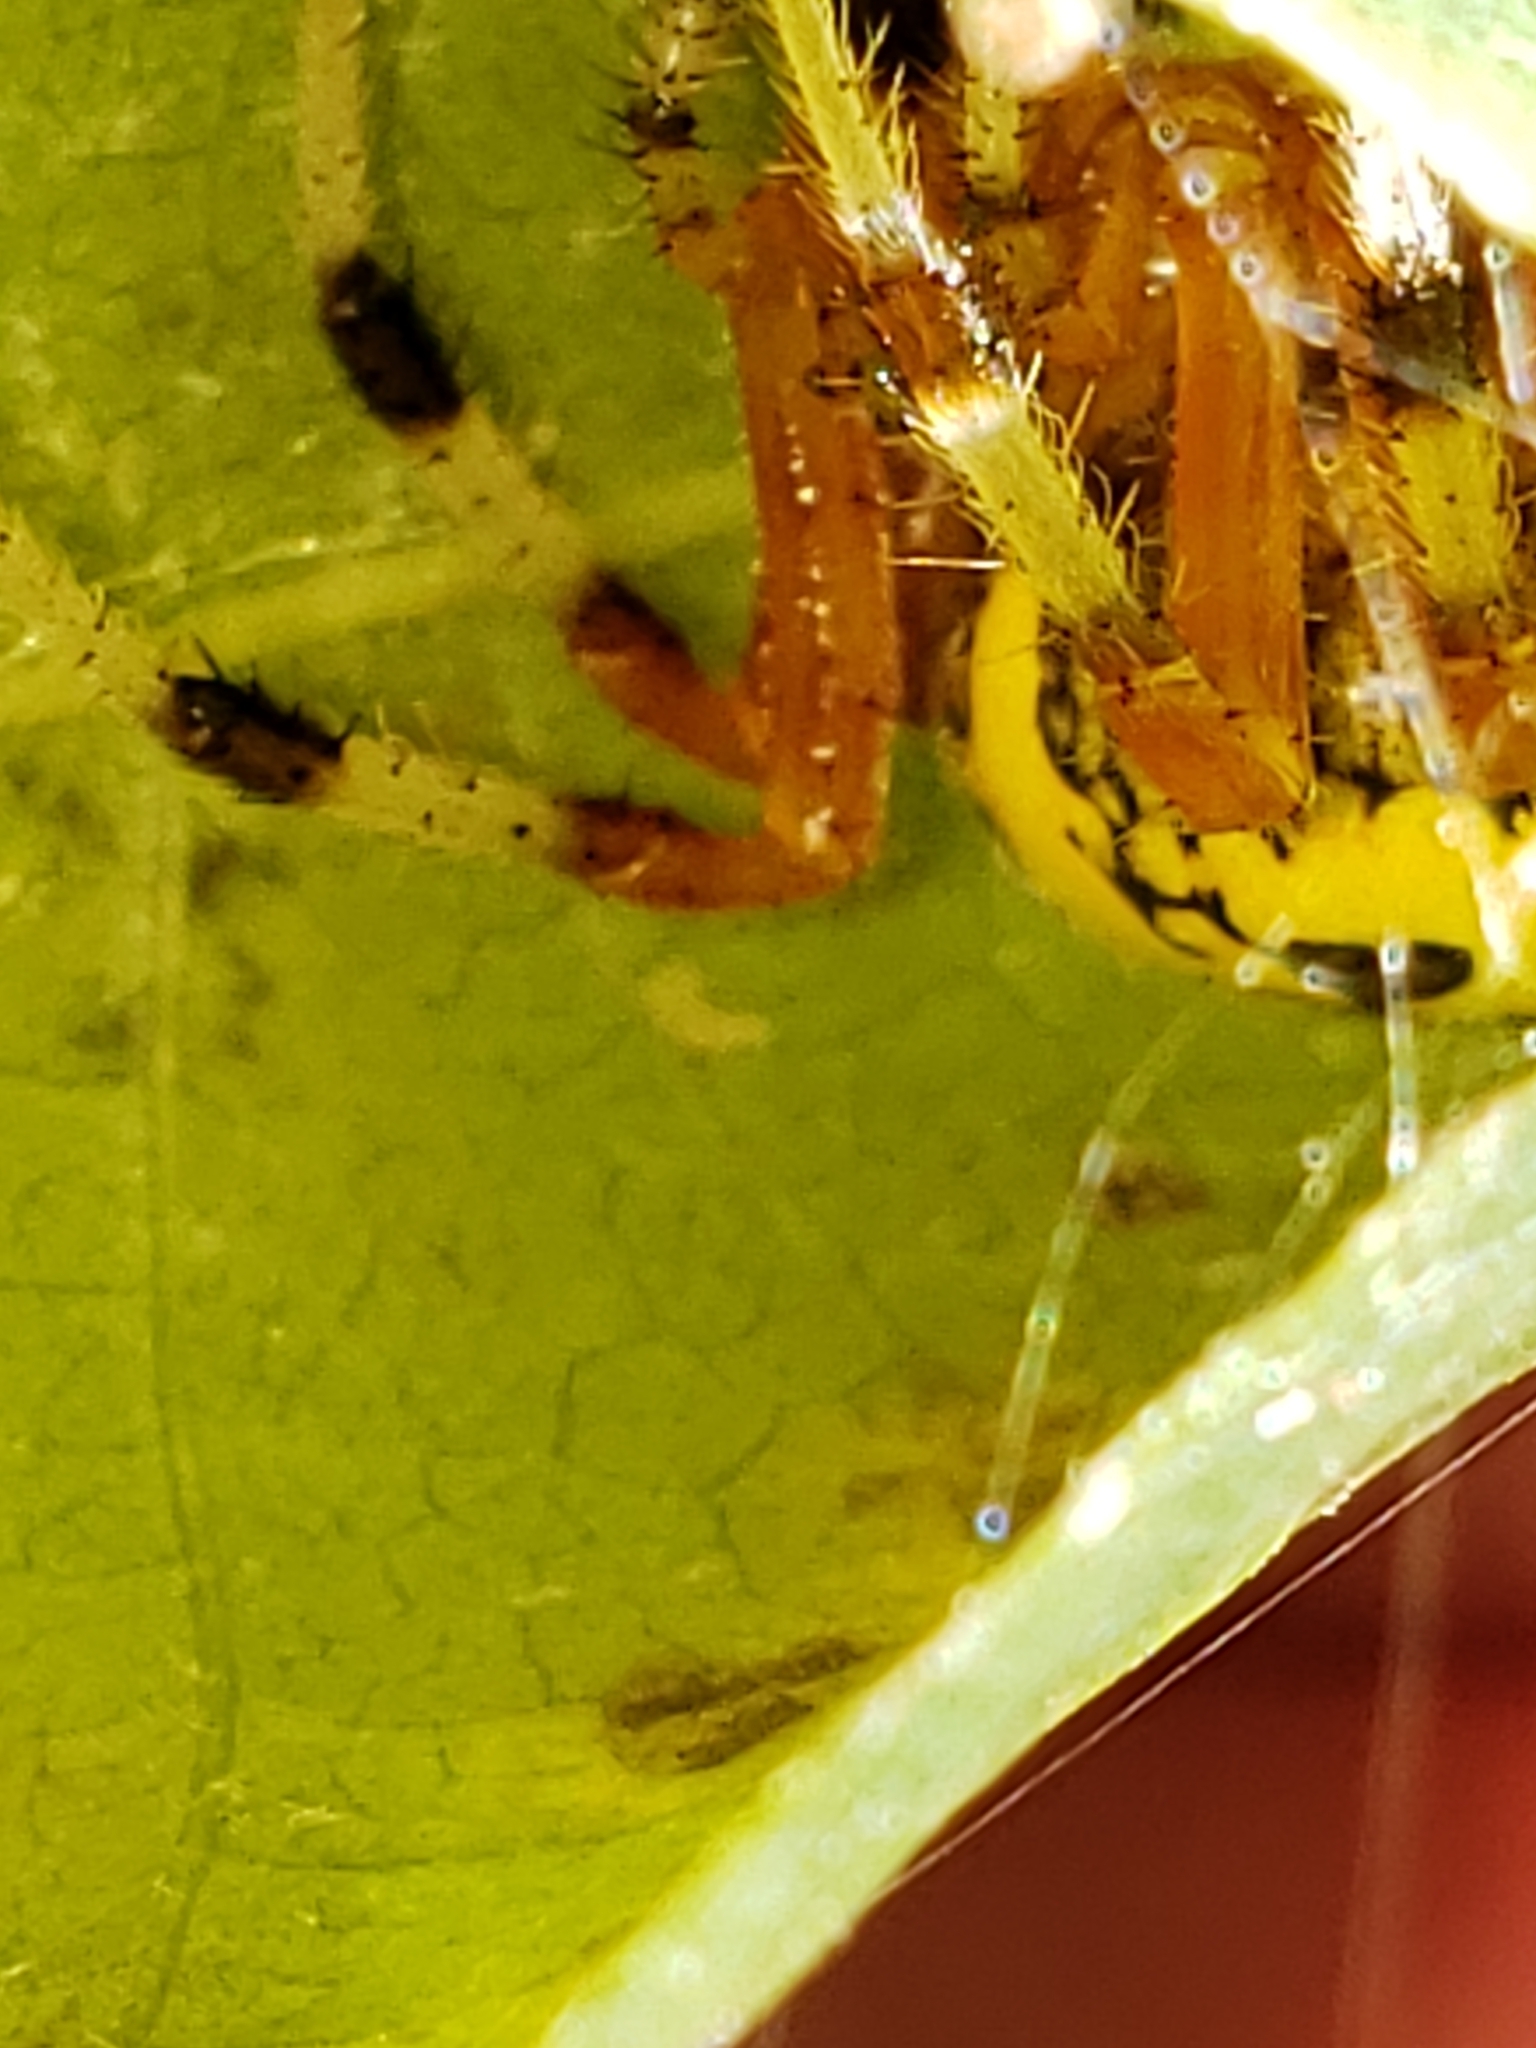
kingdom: Animalia
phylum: Arthropoda
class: Arachnida
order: Araneae
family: Araneidae
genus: Araneus
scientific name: Araneus marmoreus
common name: Marbled orbweaver
